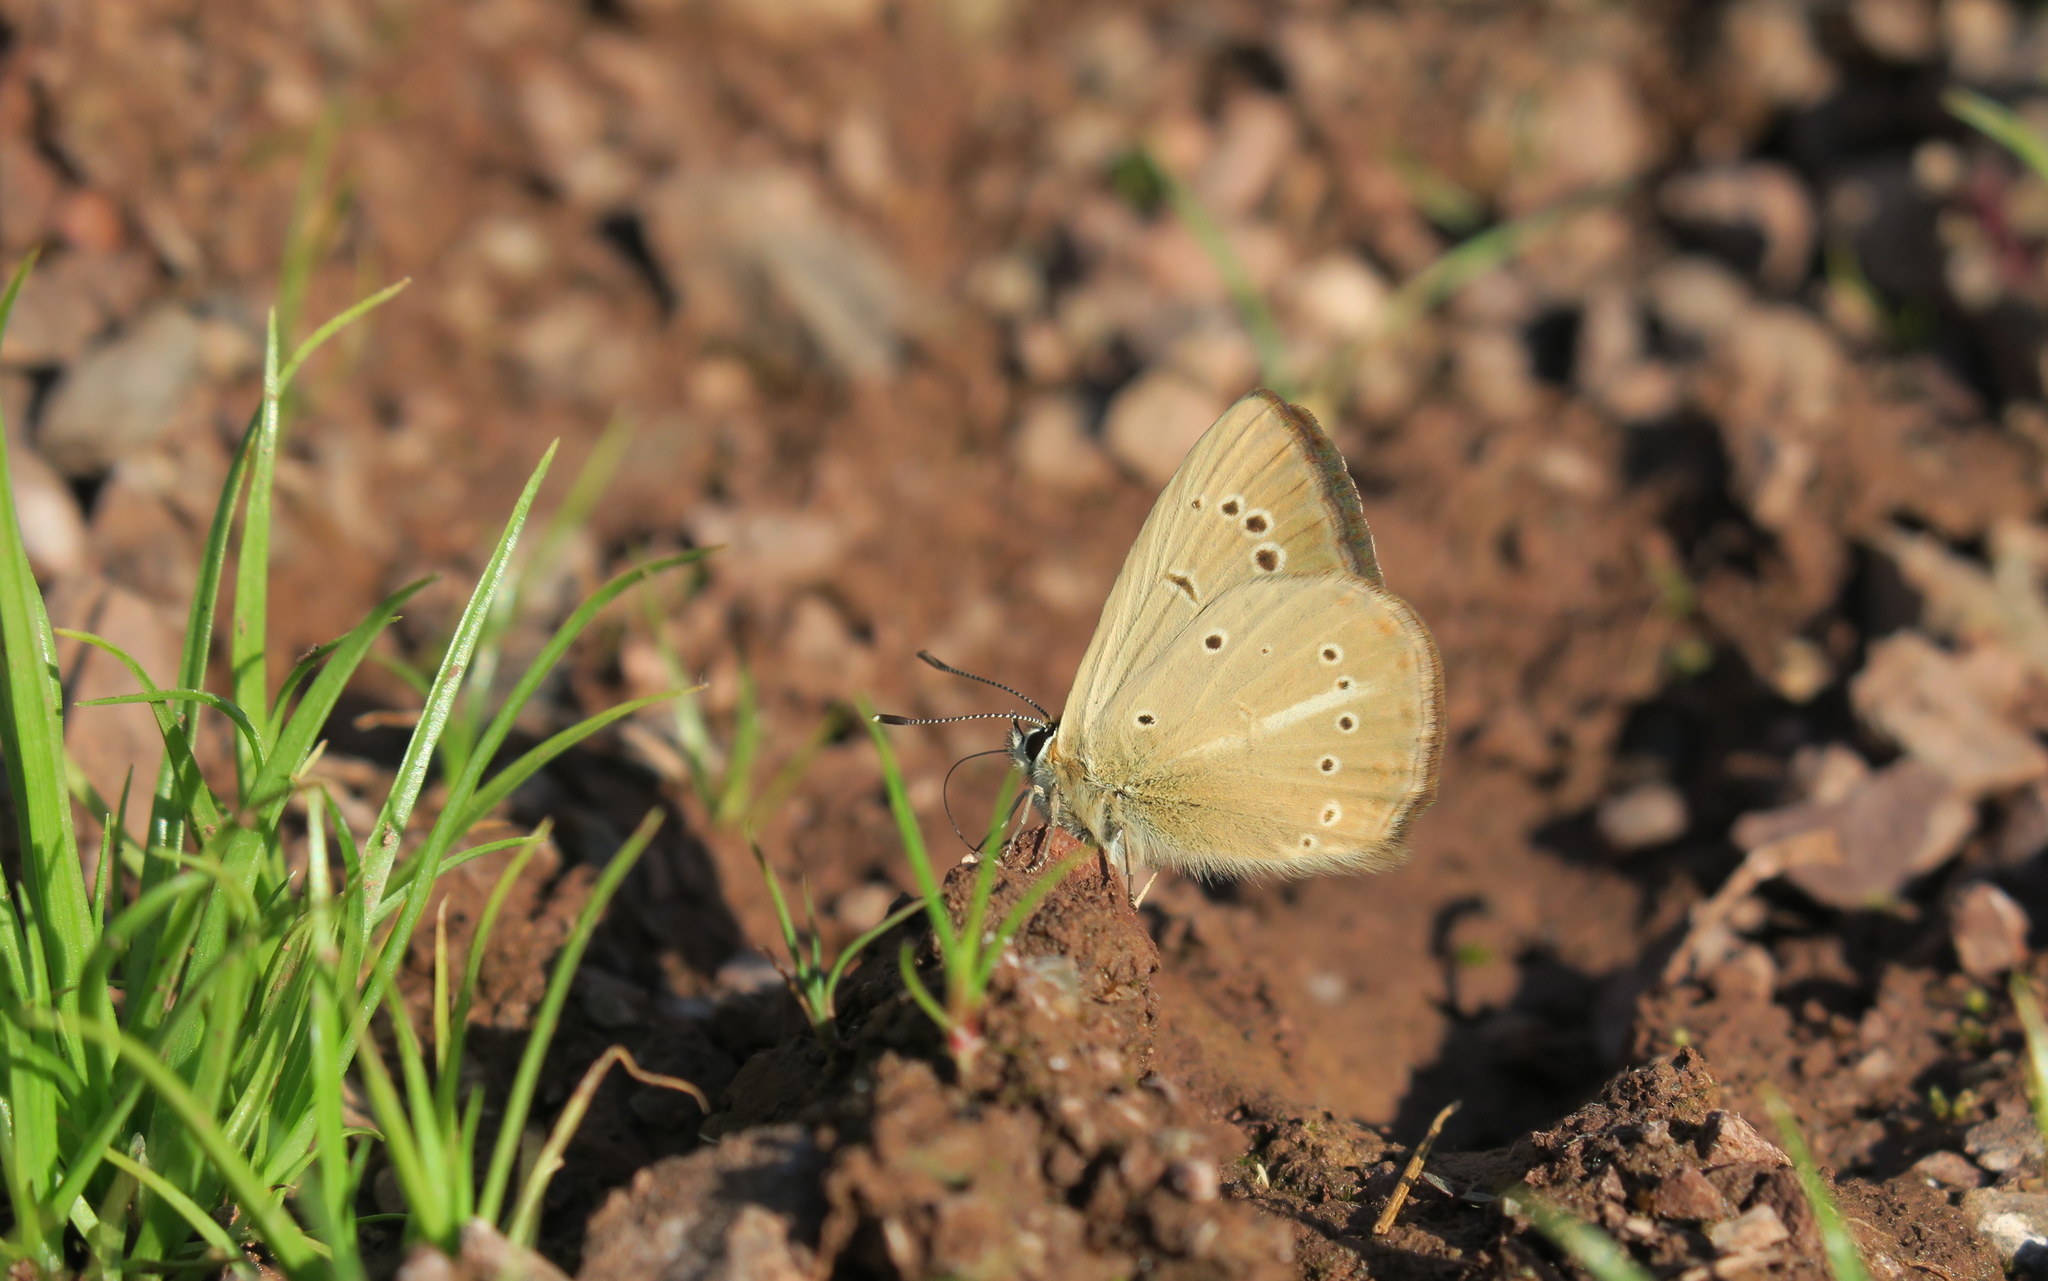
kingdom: Animalia
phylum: Arthropoda
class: Insecta
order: Lepidoptera
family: Lycaenidae
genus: Polyommatus
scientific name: Polyommatus ripartii
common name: Ripart's anomalous blue
